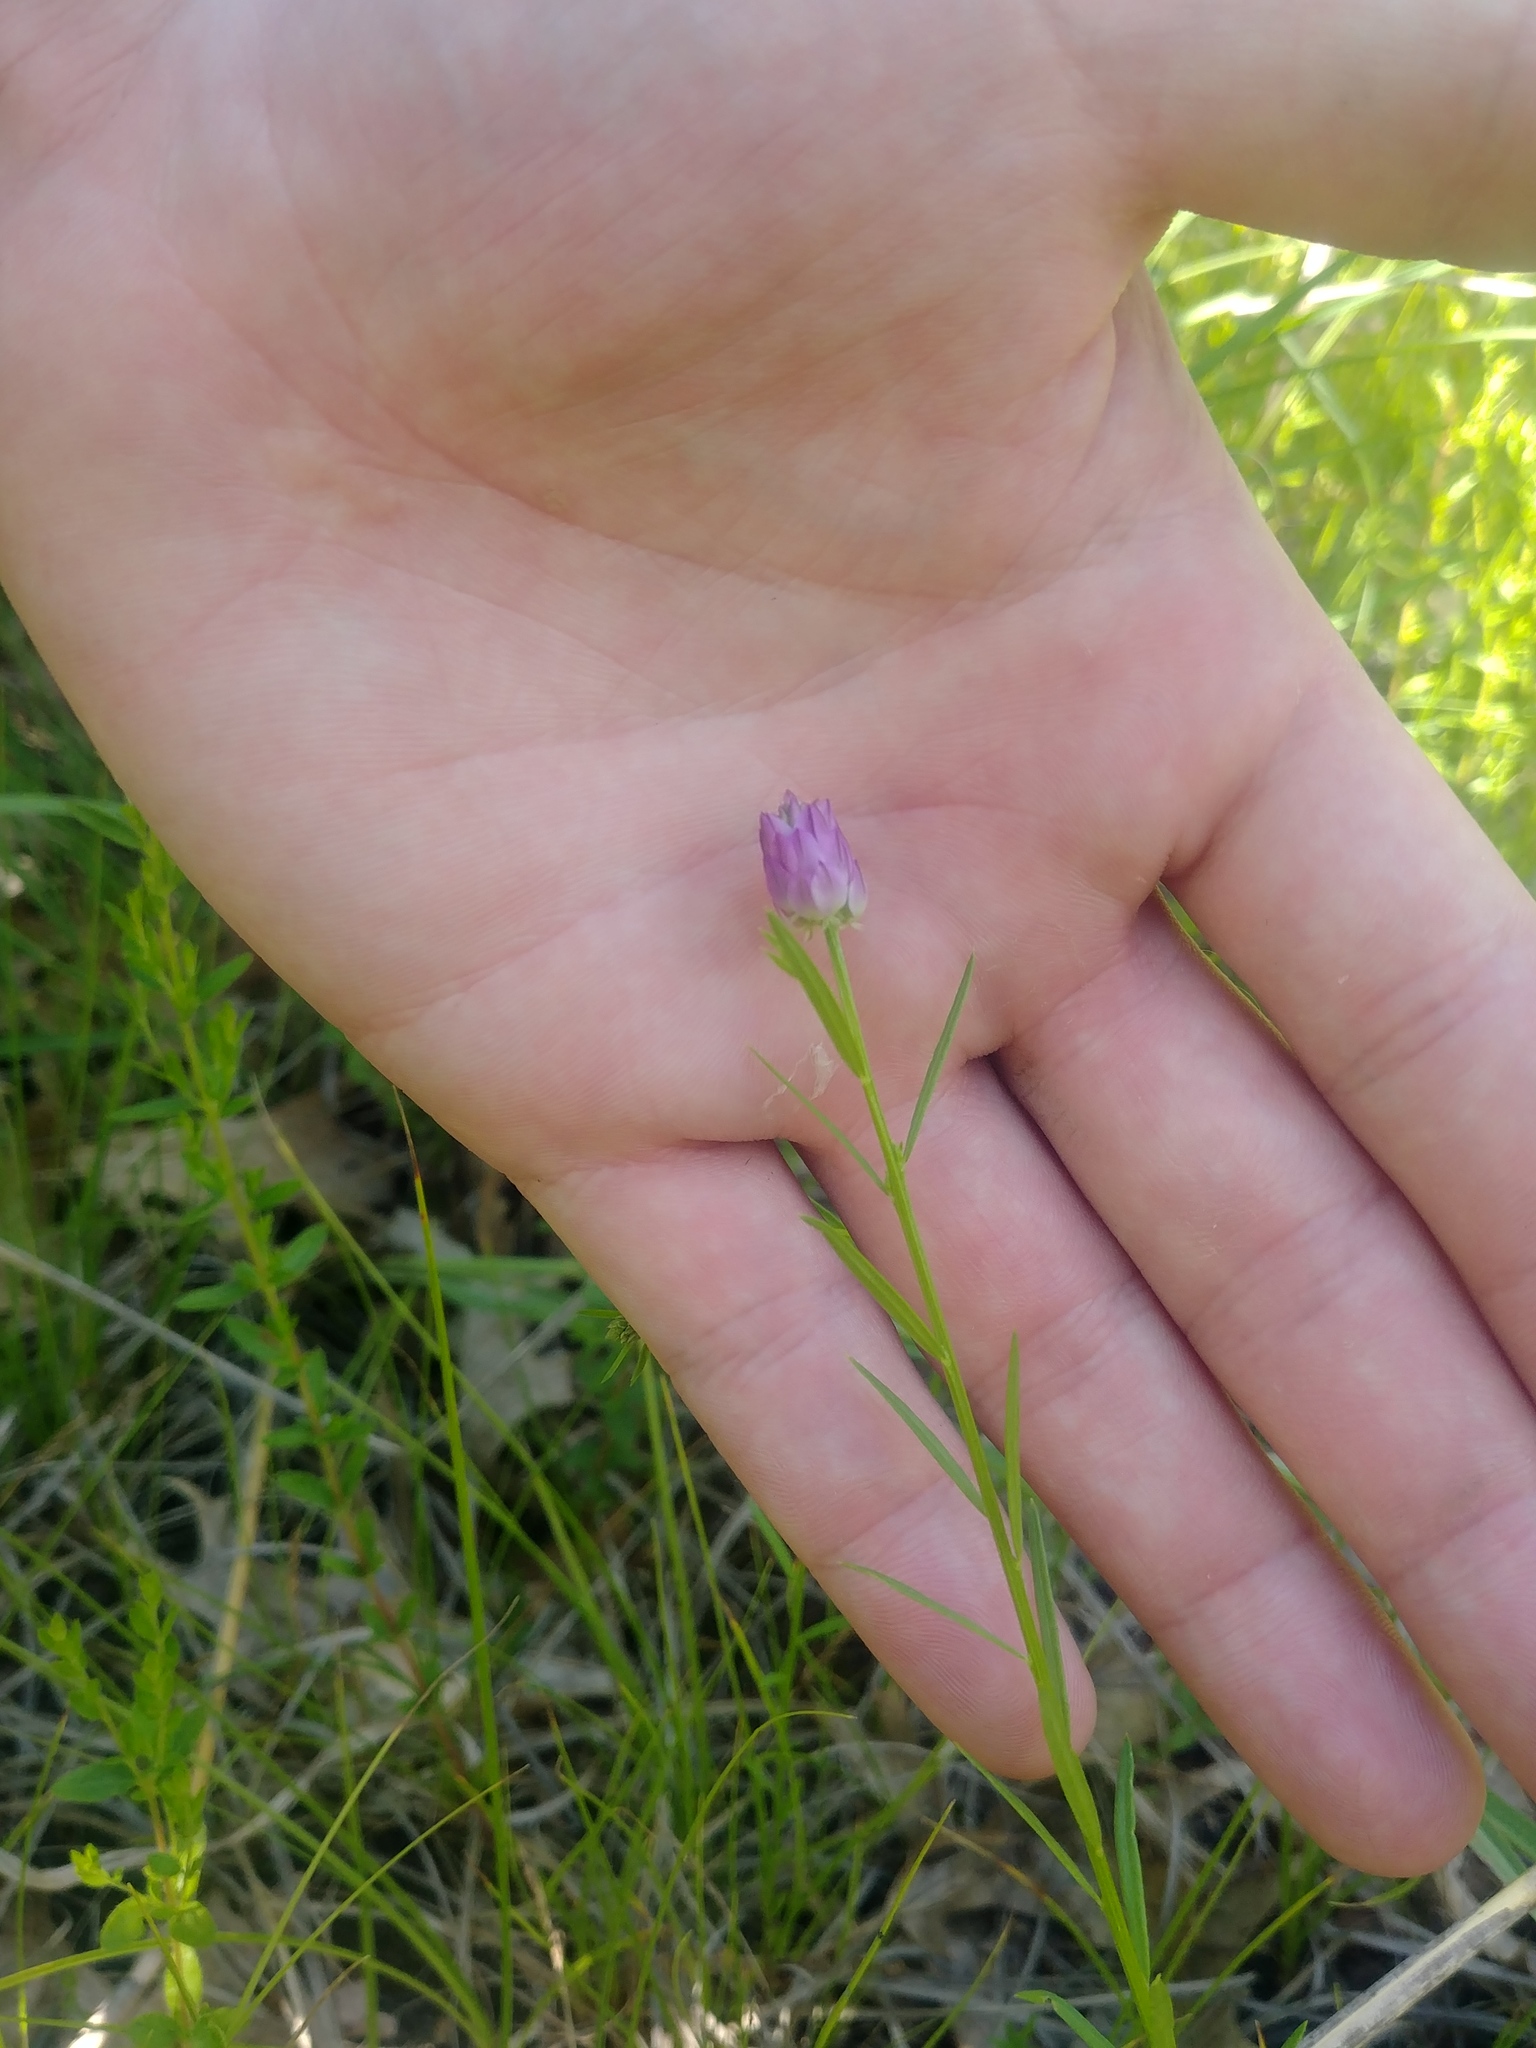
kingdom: Plantae
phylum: Tracheophyta
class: Magnoliopsida
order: Fabales
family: Polygalaceae
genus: Polygala
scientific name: Polygala sanguinea
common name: Blood milkwort
